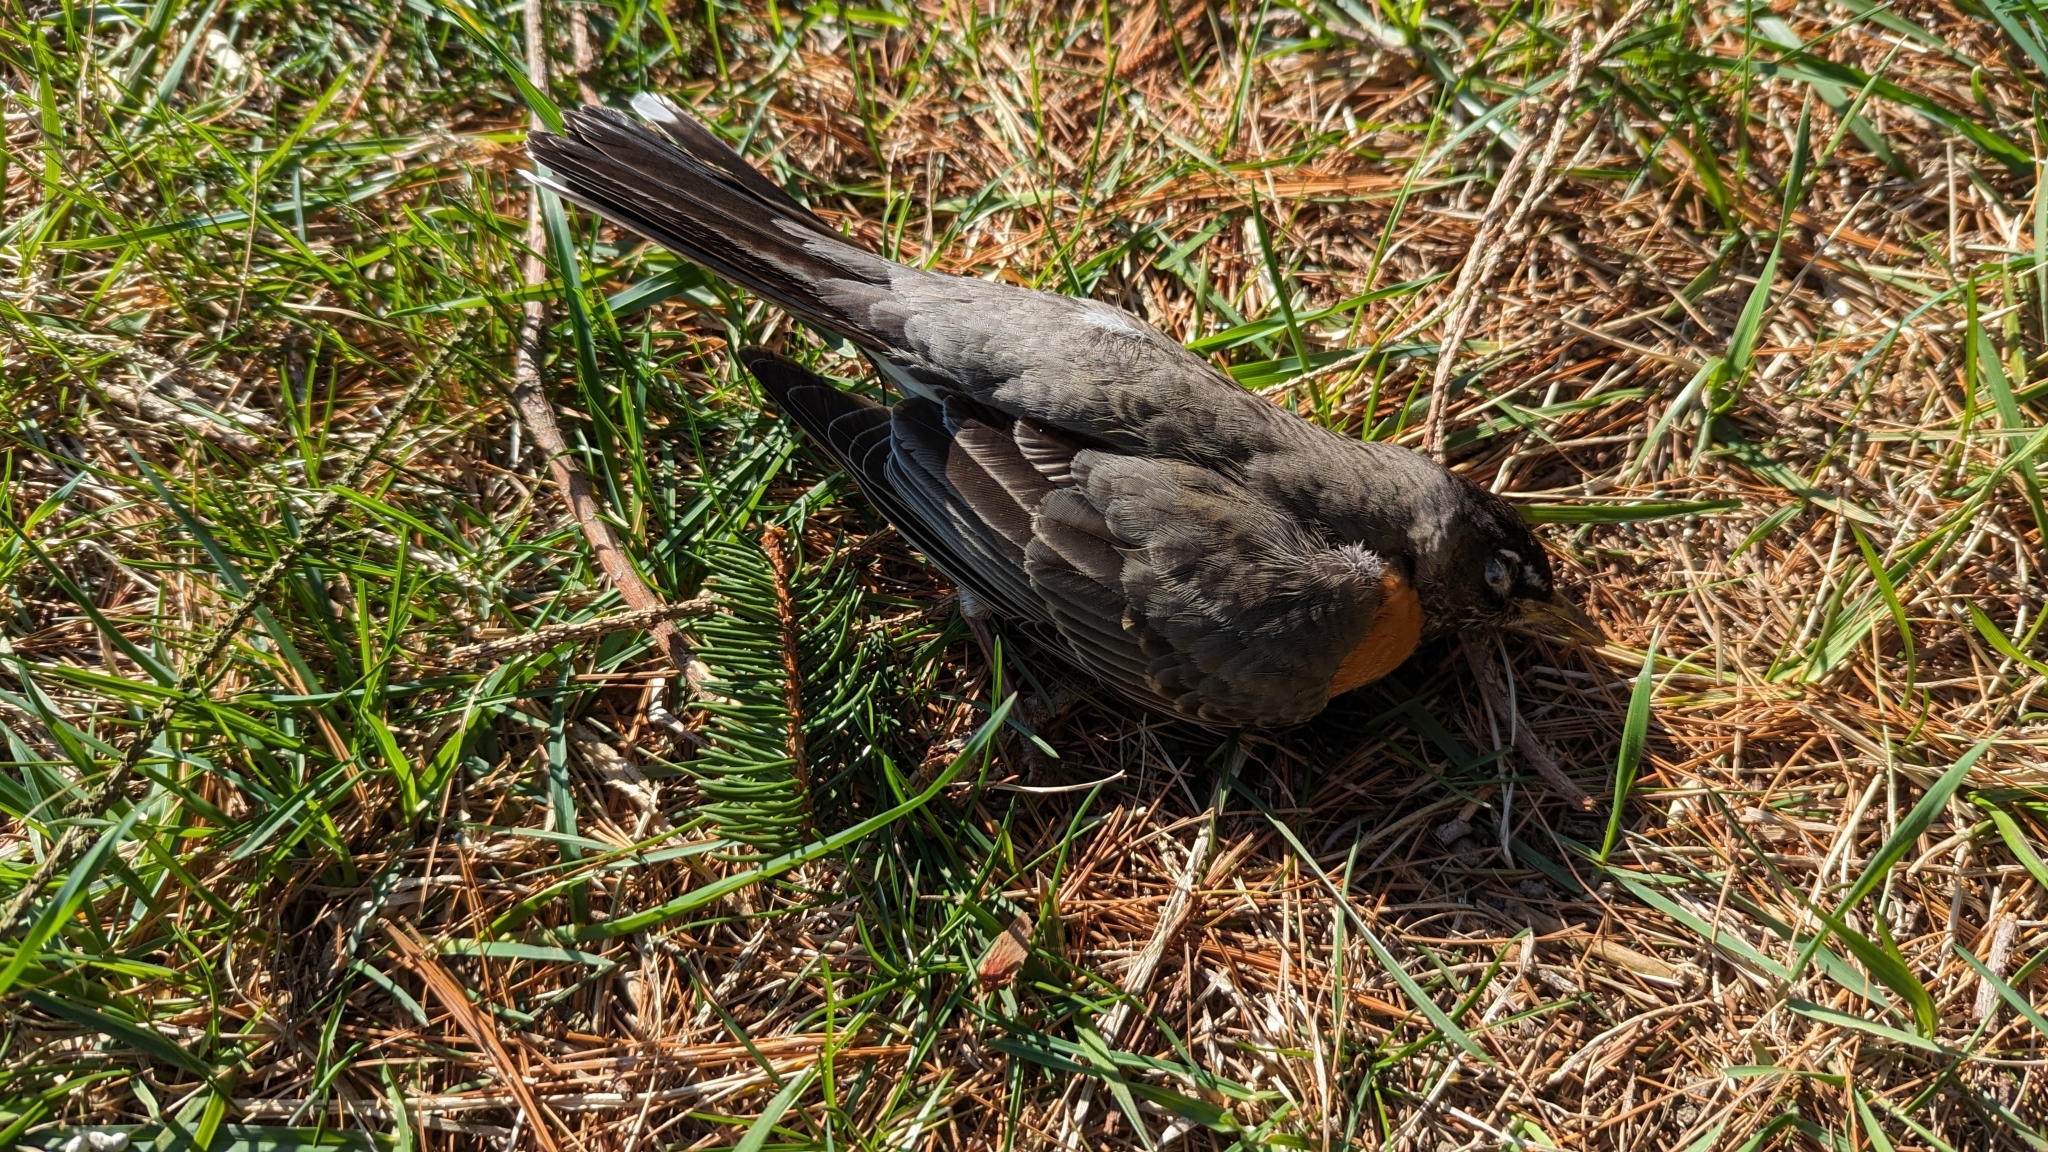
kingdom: Animalia
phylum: Chordata
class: Aves
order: Passeriformes
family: Turdidae
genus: Turdus
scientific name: Turdus migratorius
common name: American robin
